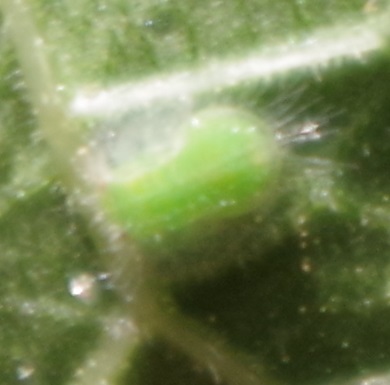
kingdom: Animalia
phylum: Arthropoda
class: Insecta
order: Hemiptera
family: Homotomidae
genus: Homotoma
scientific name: Homotoma ficus
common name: Fig psillid
